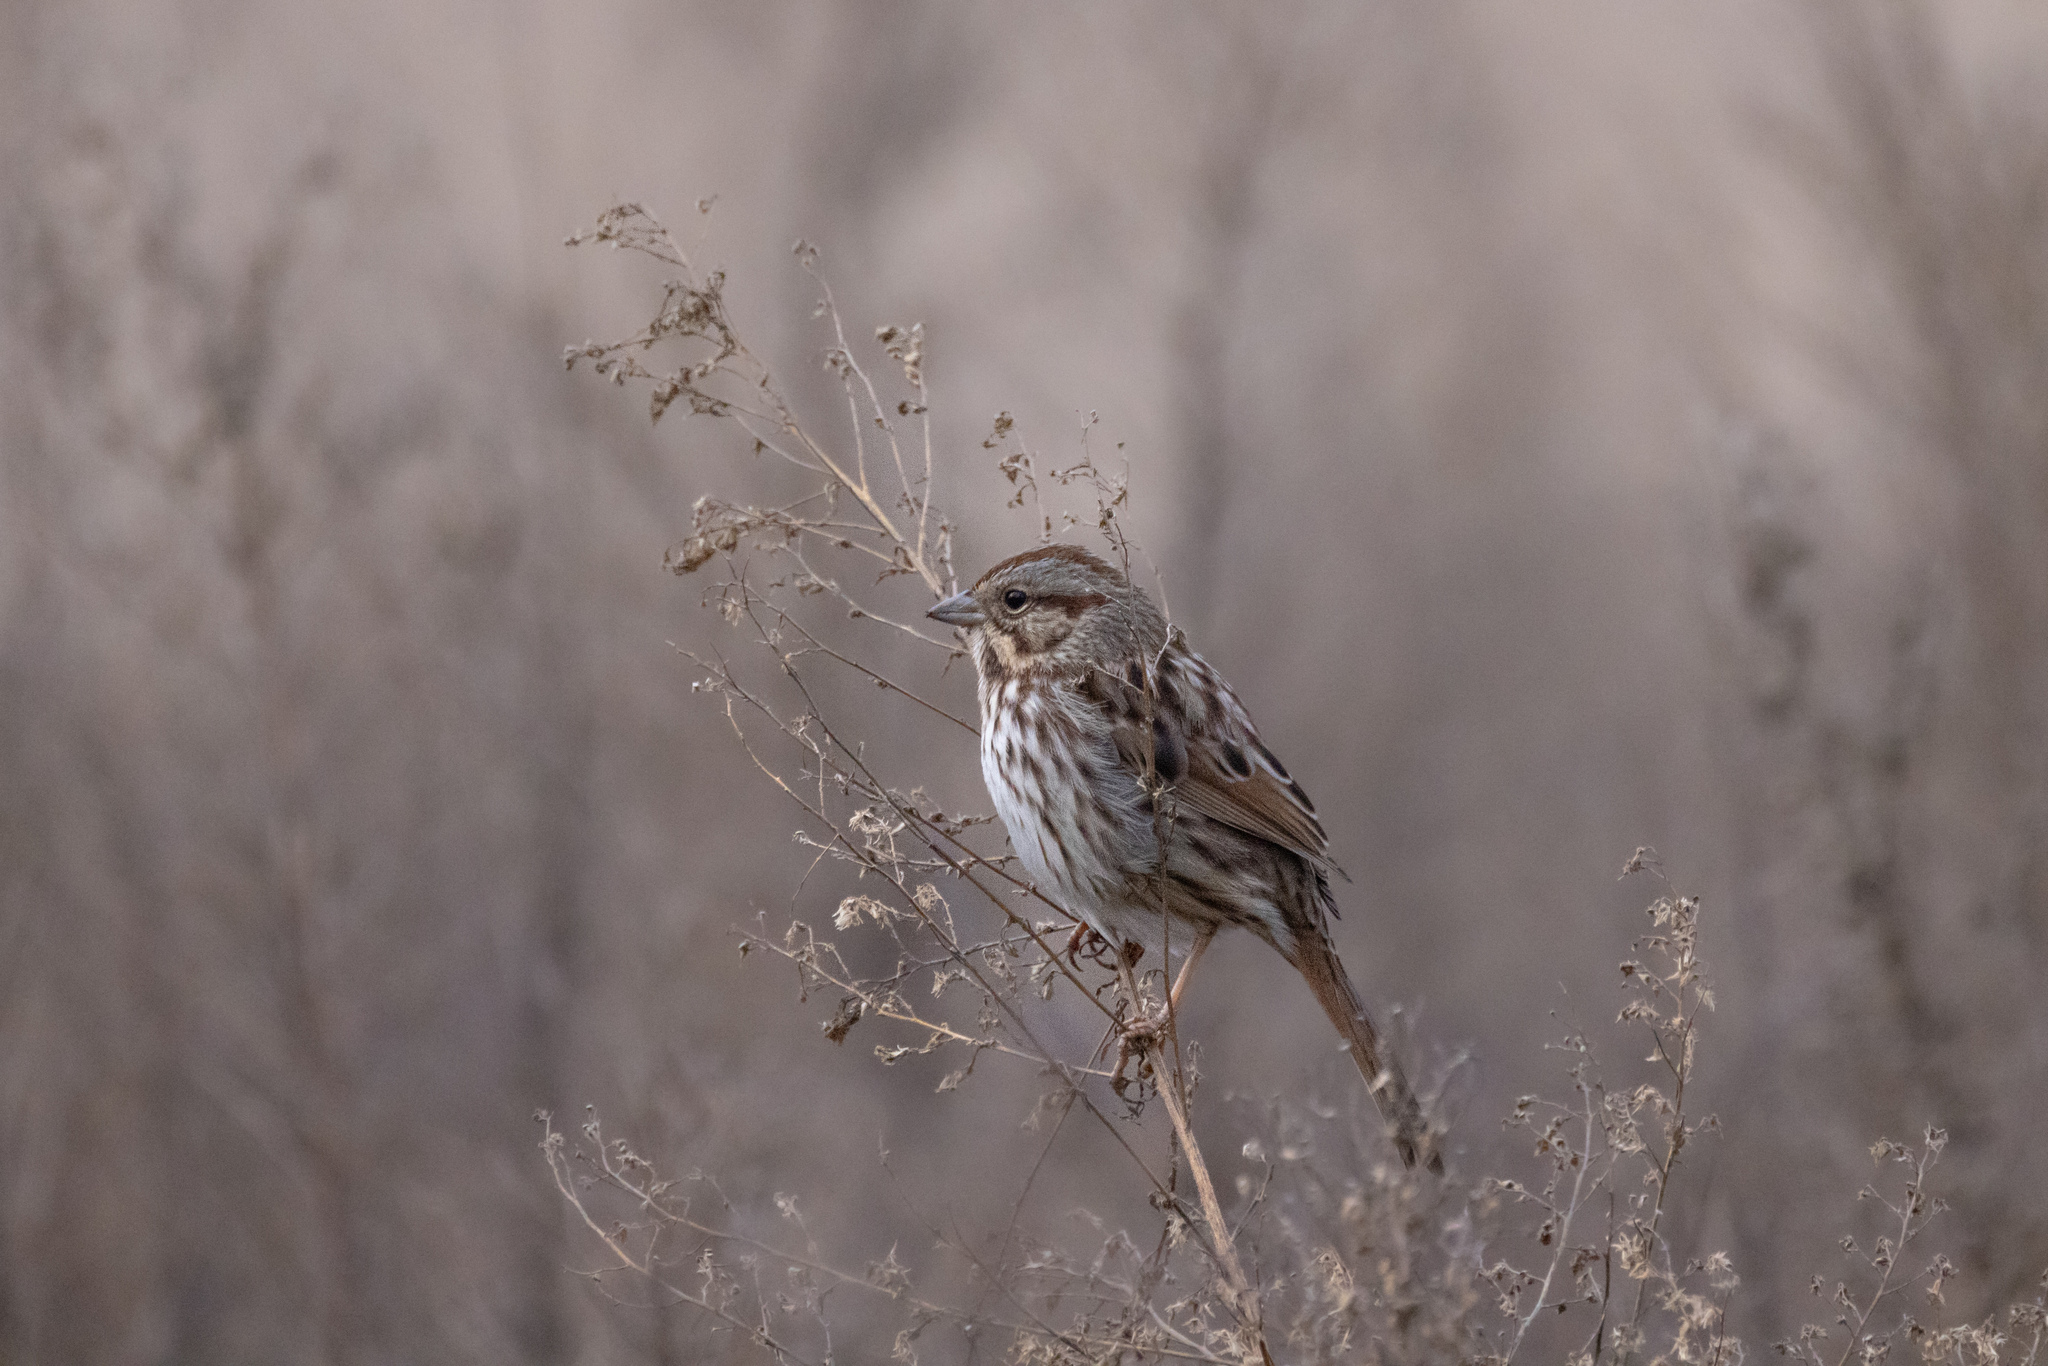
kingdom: Animalia
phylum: Chordata
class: Aves
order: Passeriformes
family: Passerellidae
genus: Melospiza
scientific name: Melospiza melodia
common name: Song sparrow
